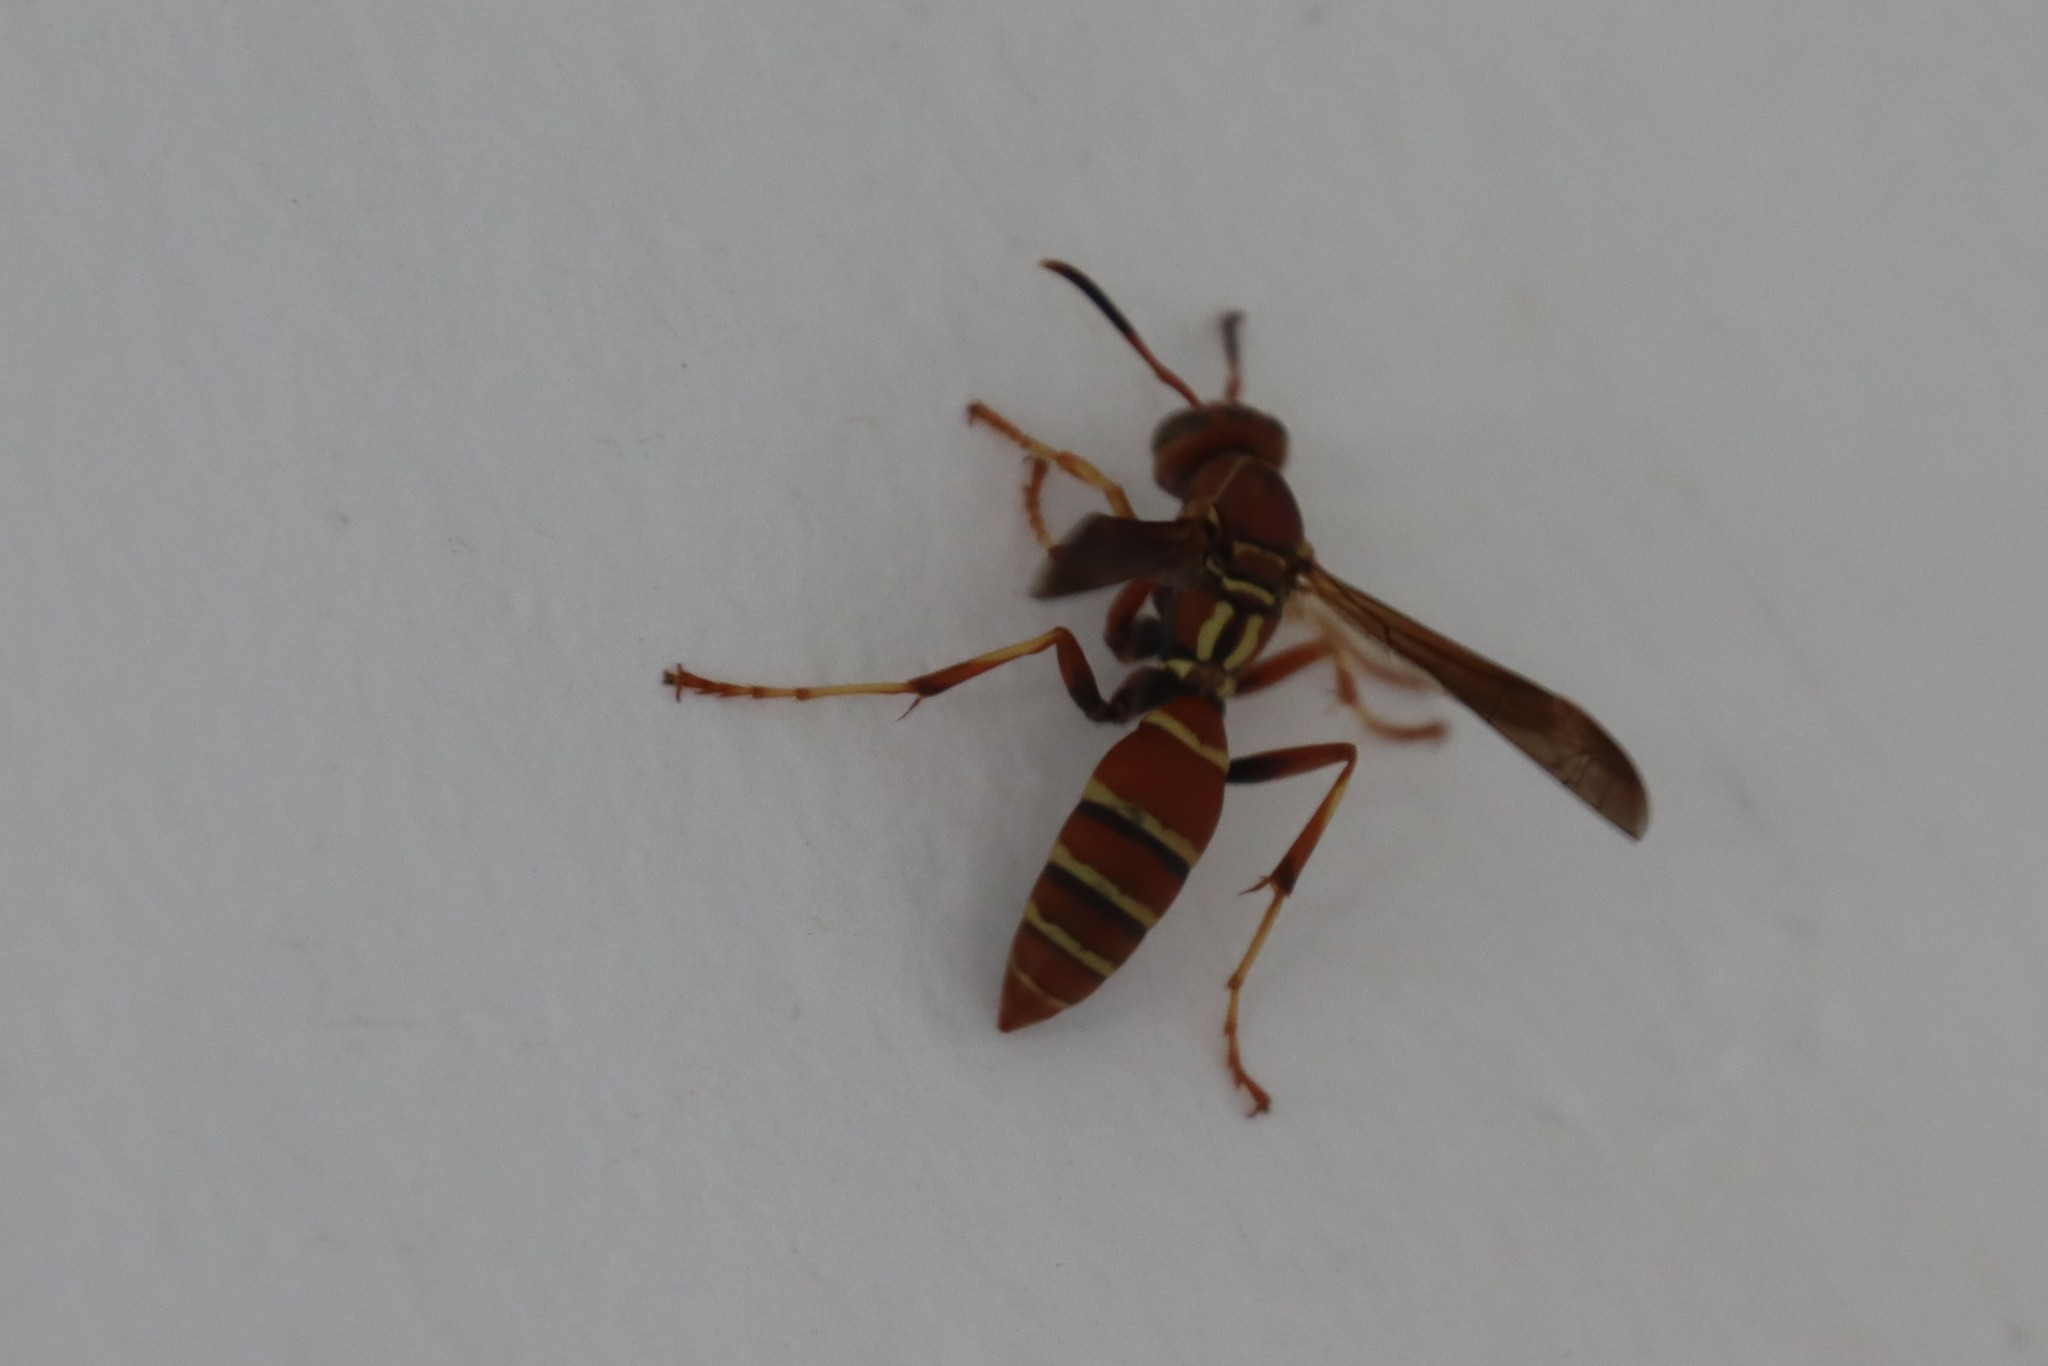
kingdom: Animalia
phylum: Arthropoda
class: Insecta
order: Hymenoptera
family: Eumenidae
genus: Polistes
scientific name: Polistes dorsalis
